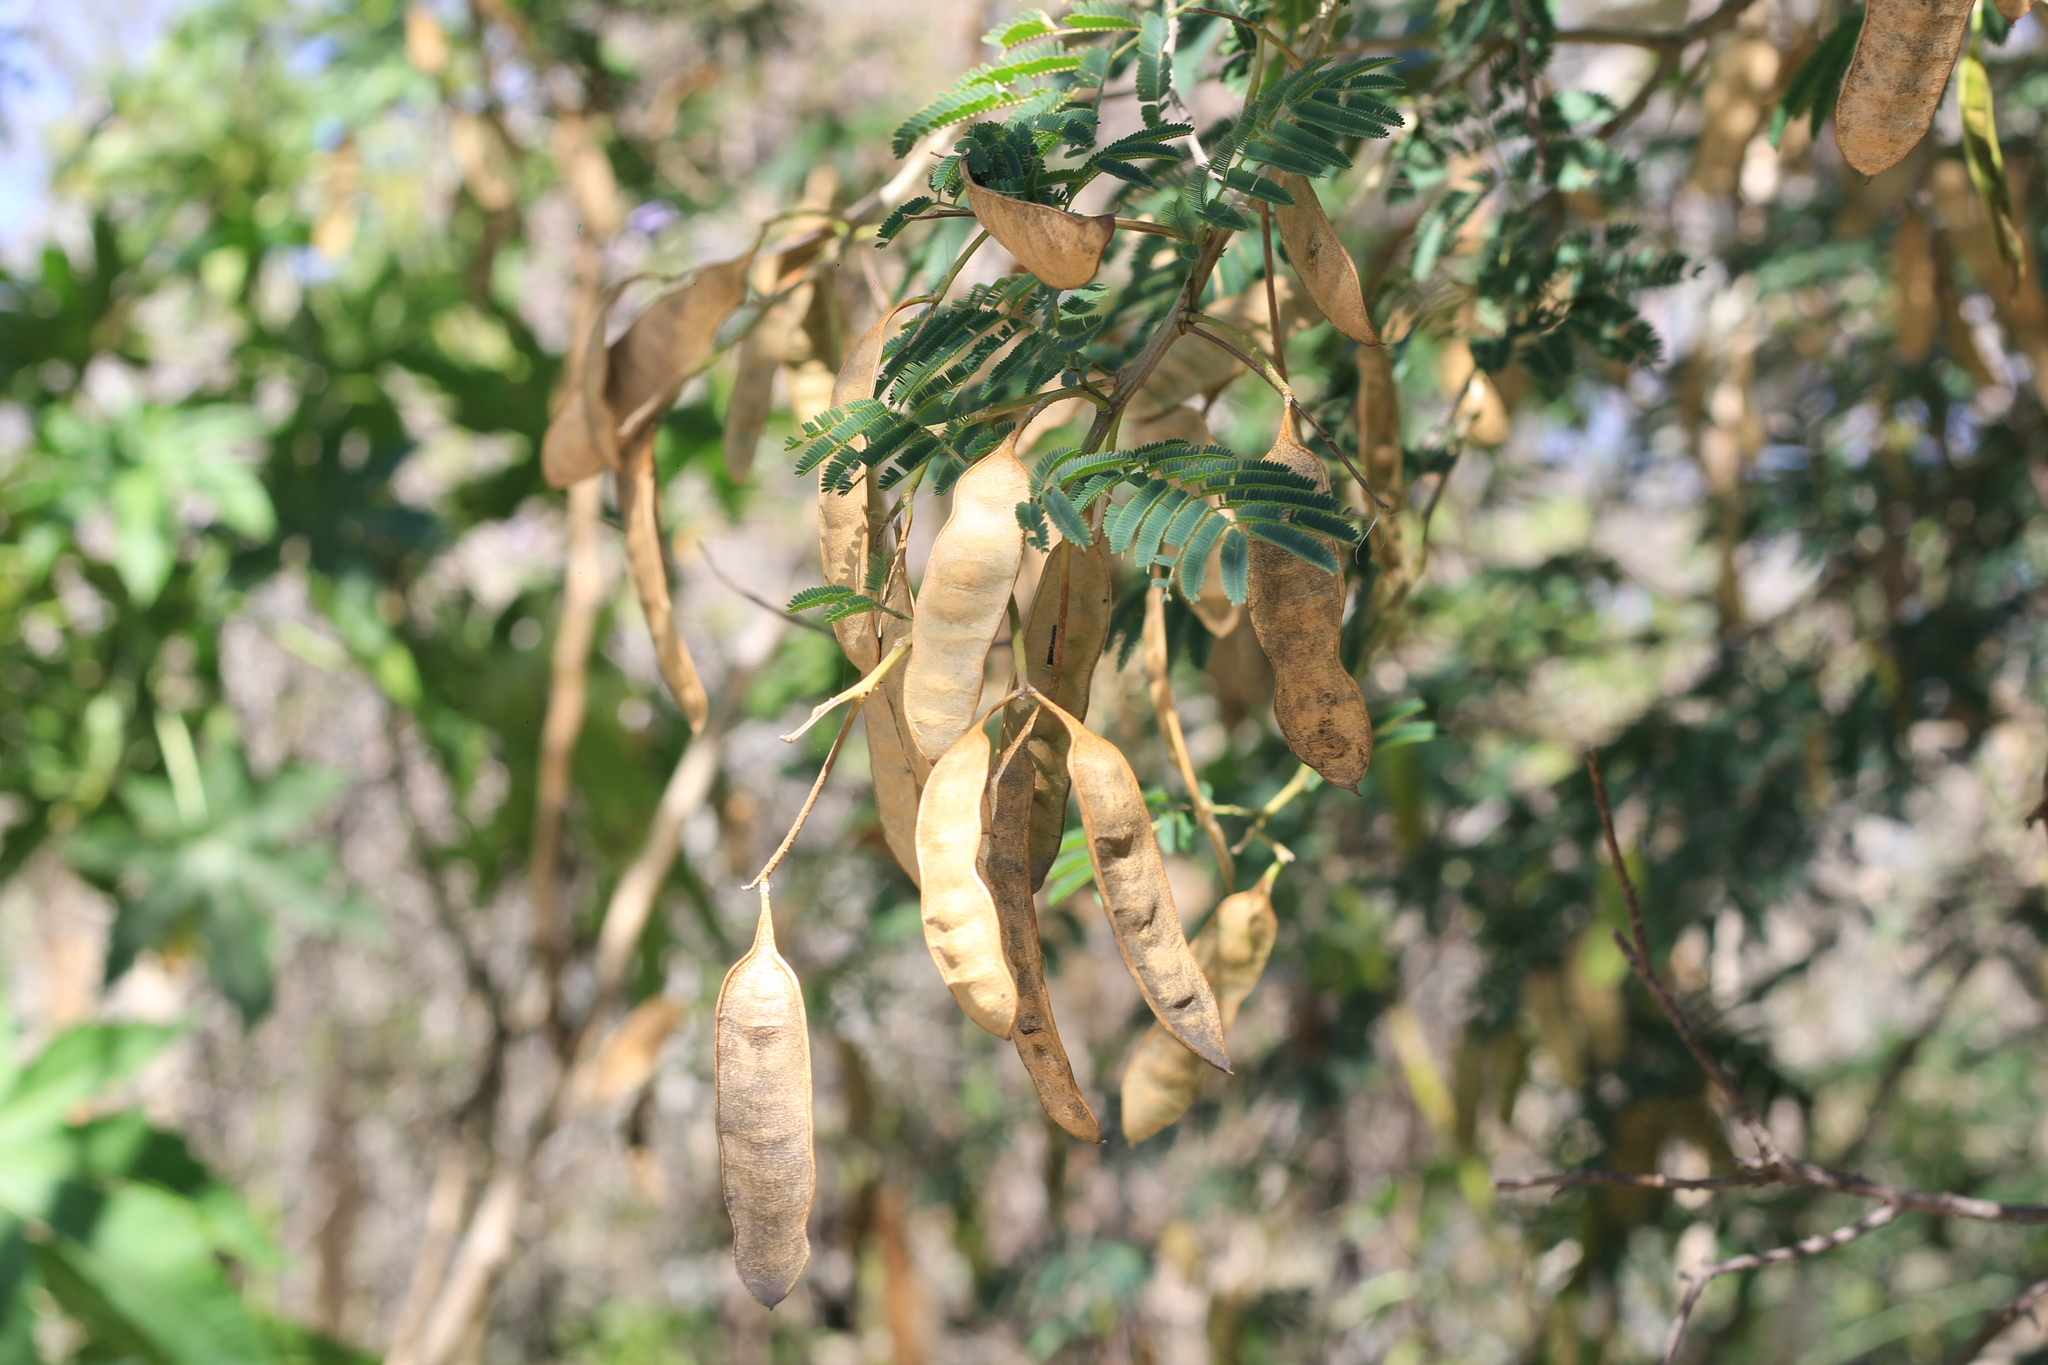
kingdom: Plantae
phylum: Tracheophyta
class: Magnoliopsida
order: Fabales
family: Fabaceae
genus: Senegalia
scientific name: Senegalia bonariensis
